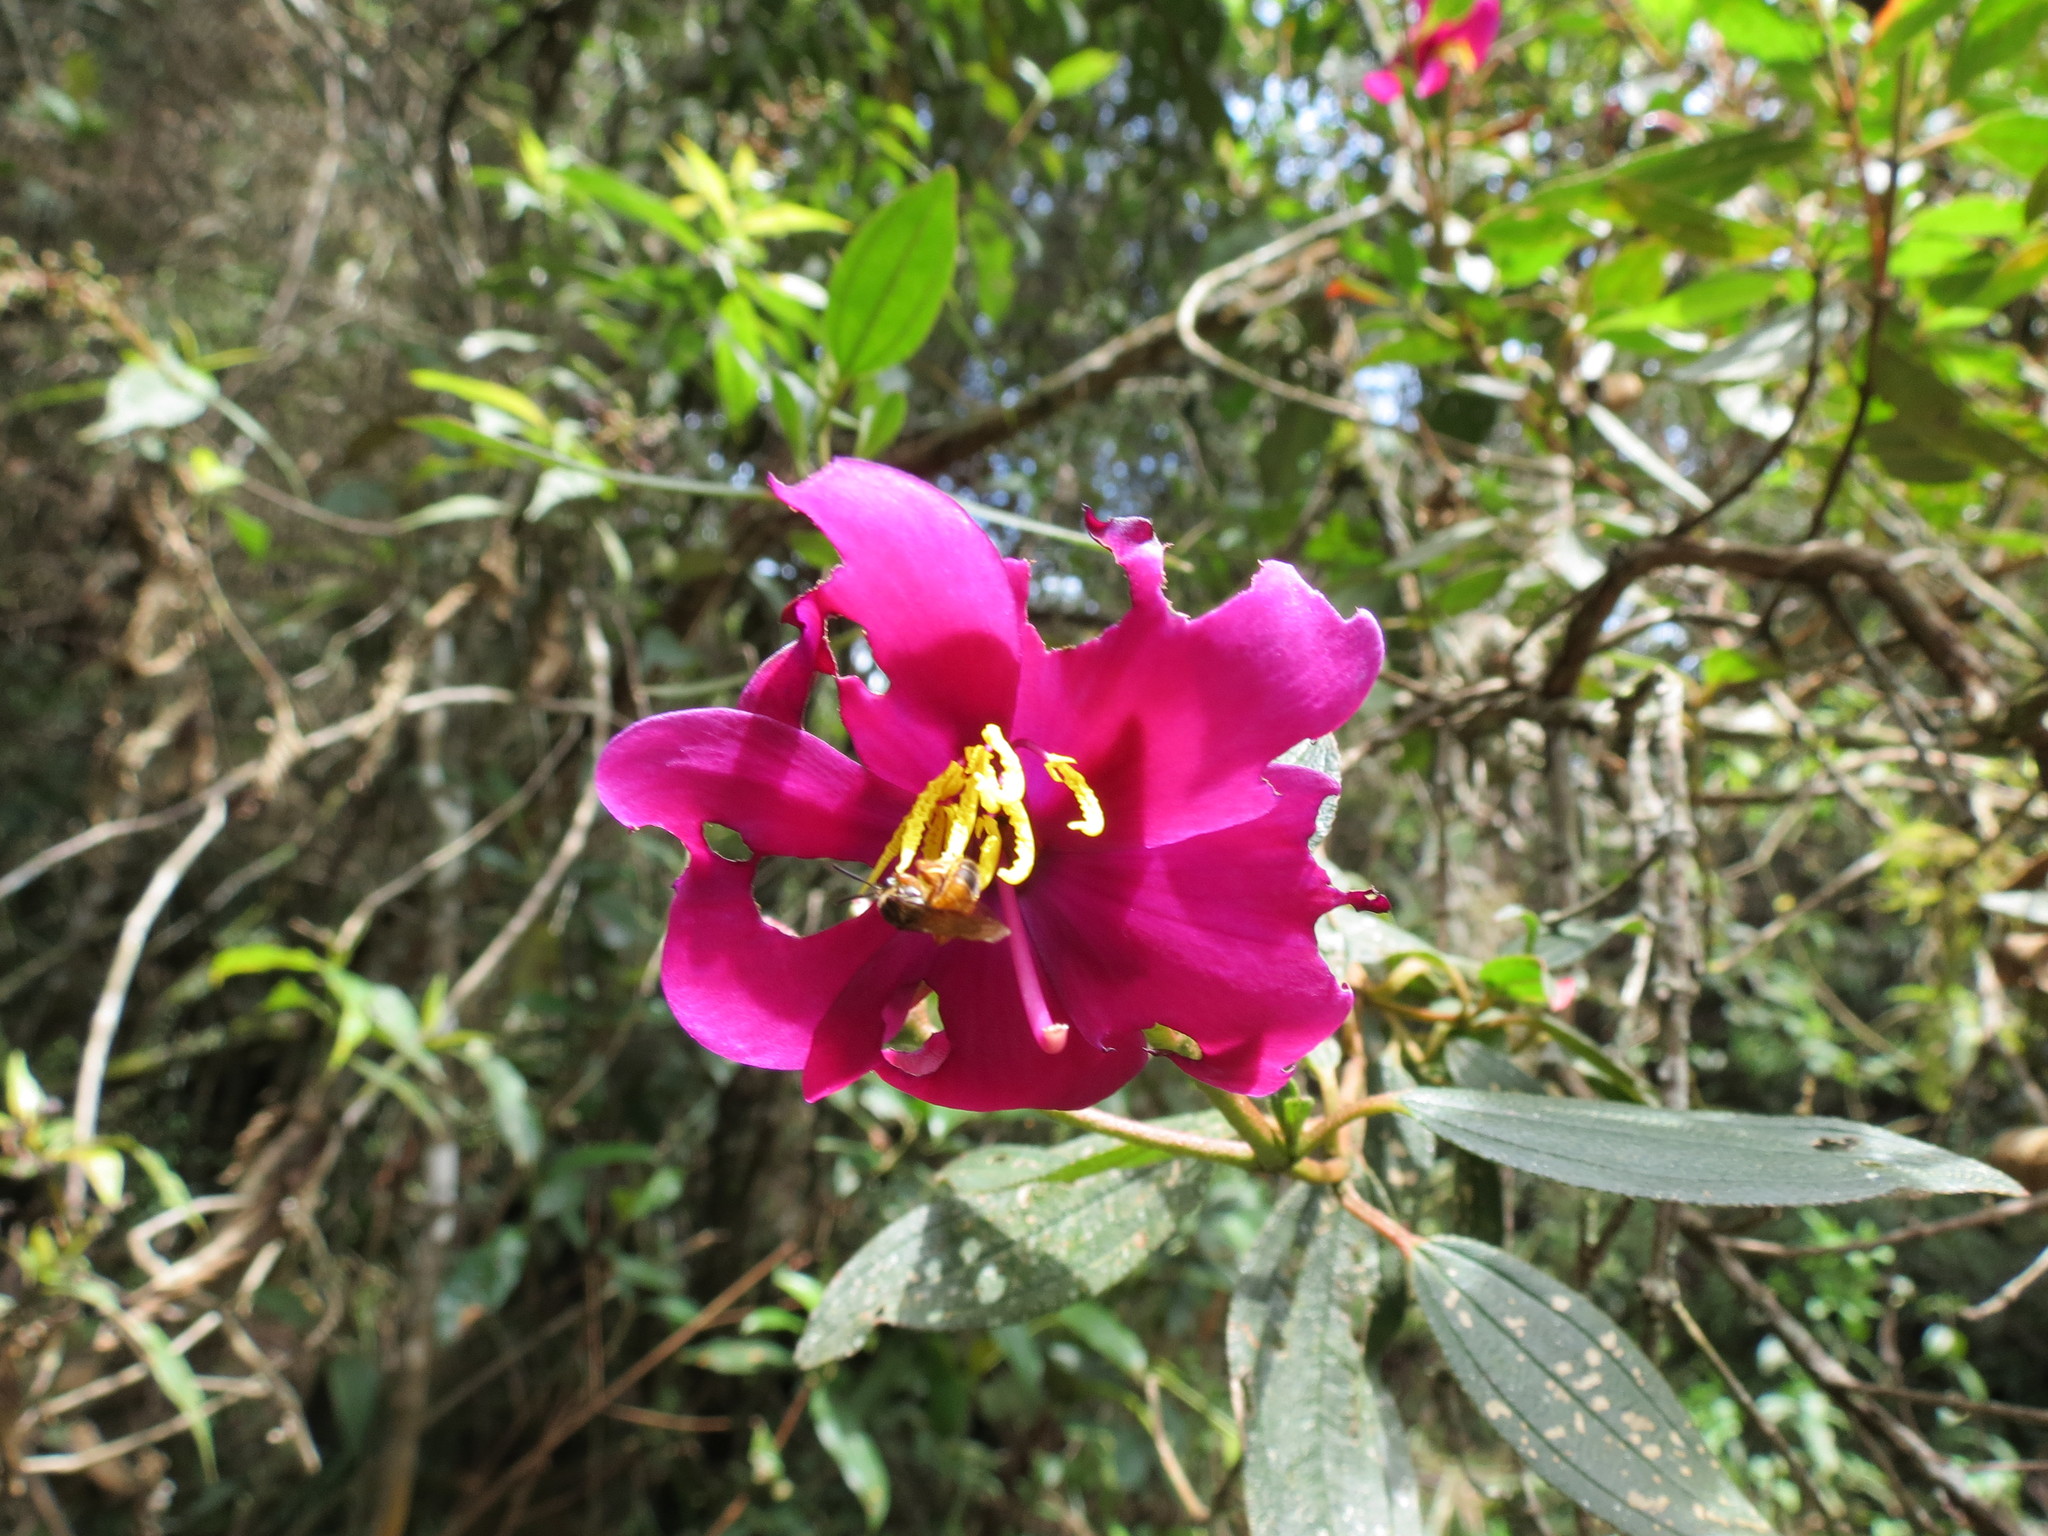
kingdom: Plantae
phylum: Tracheophyta
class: Magnoliopsida
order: Myrtales
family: Melastomataceae
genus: Andesanthus
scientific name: Andesanthus lepidotus
